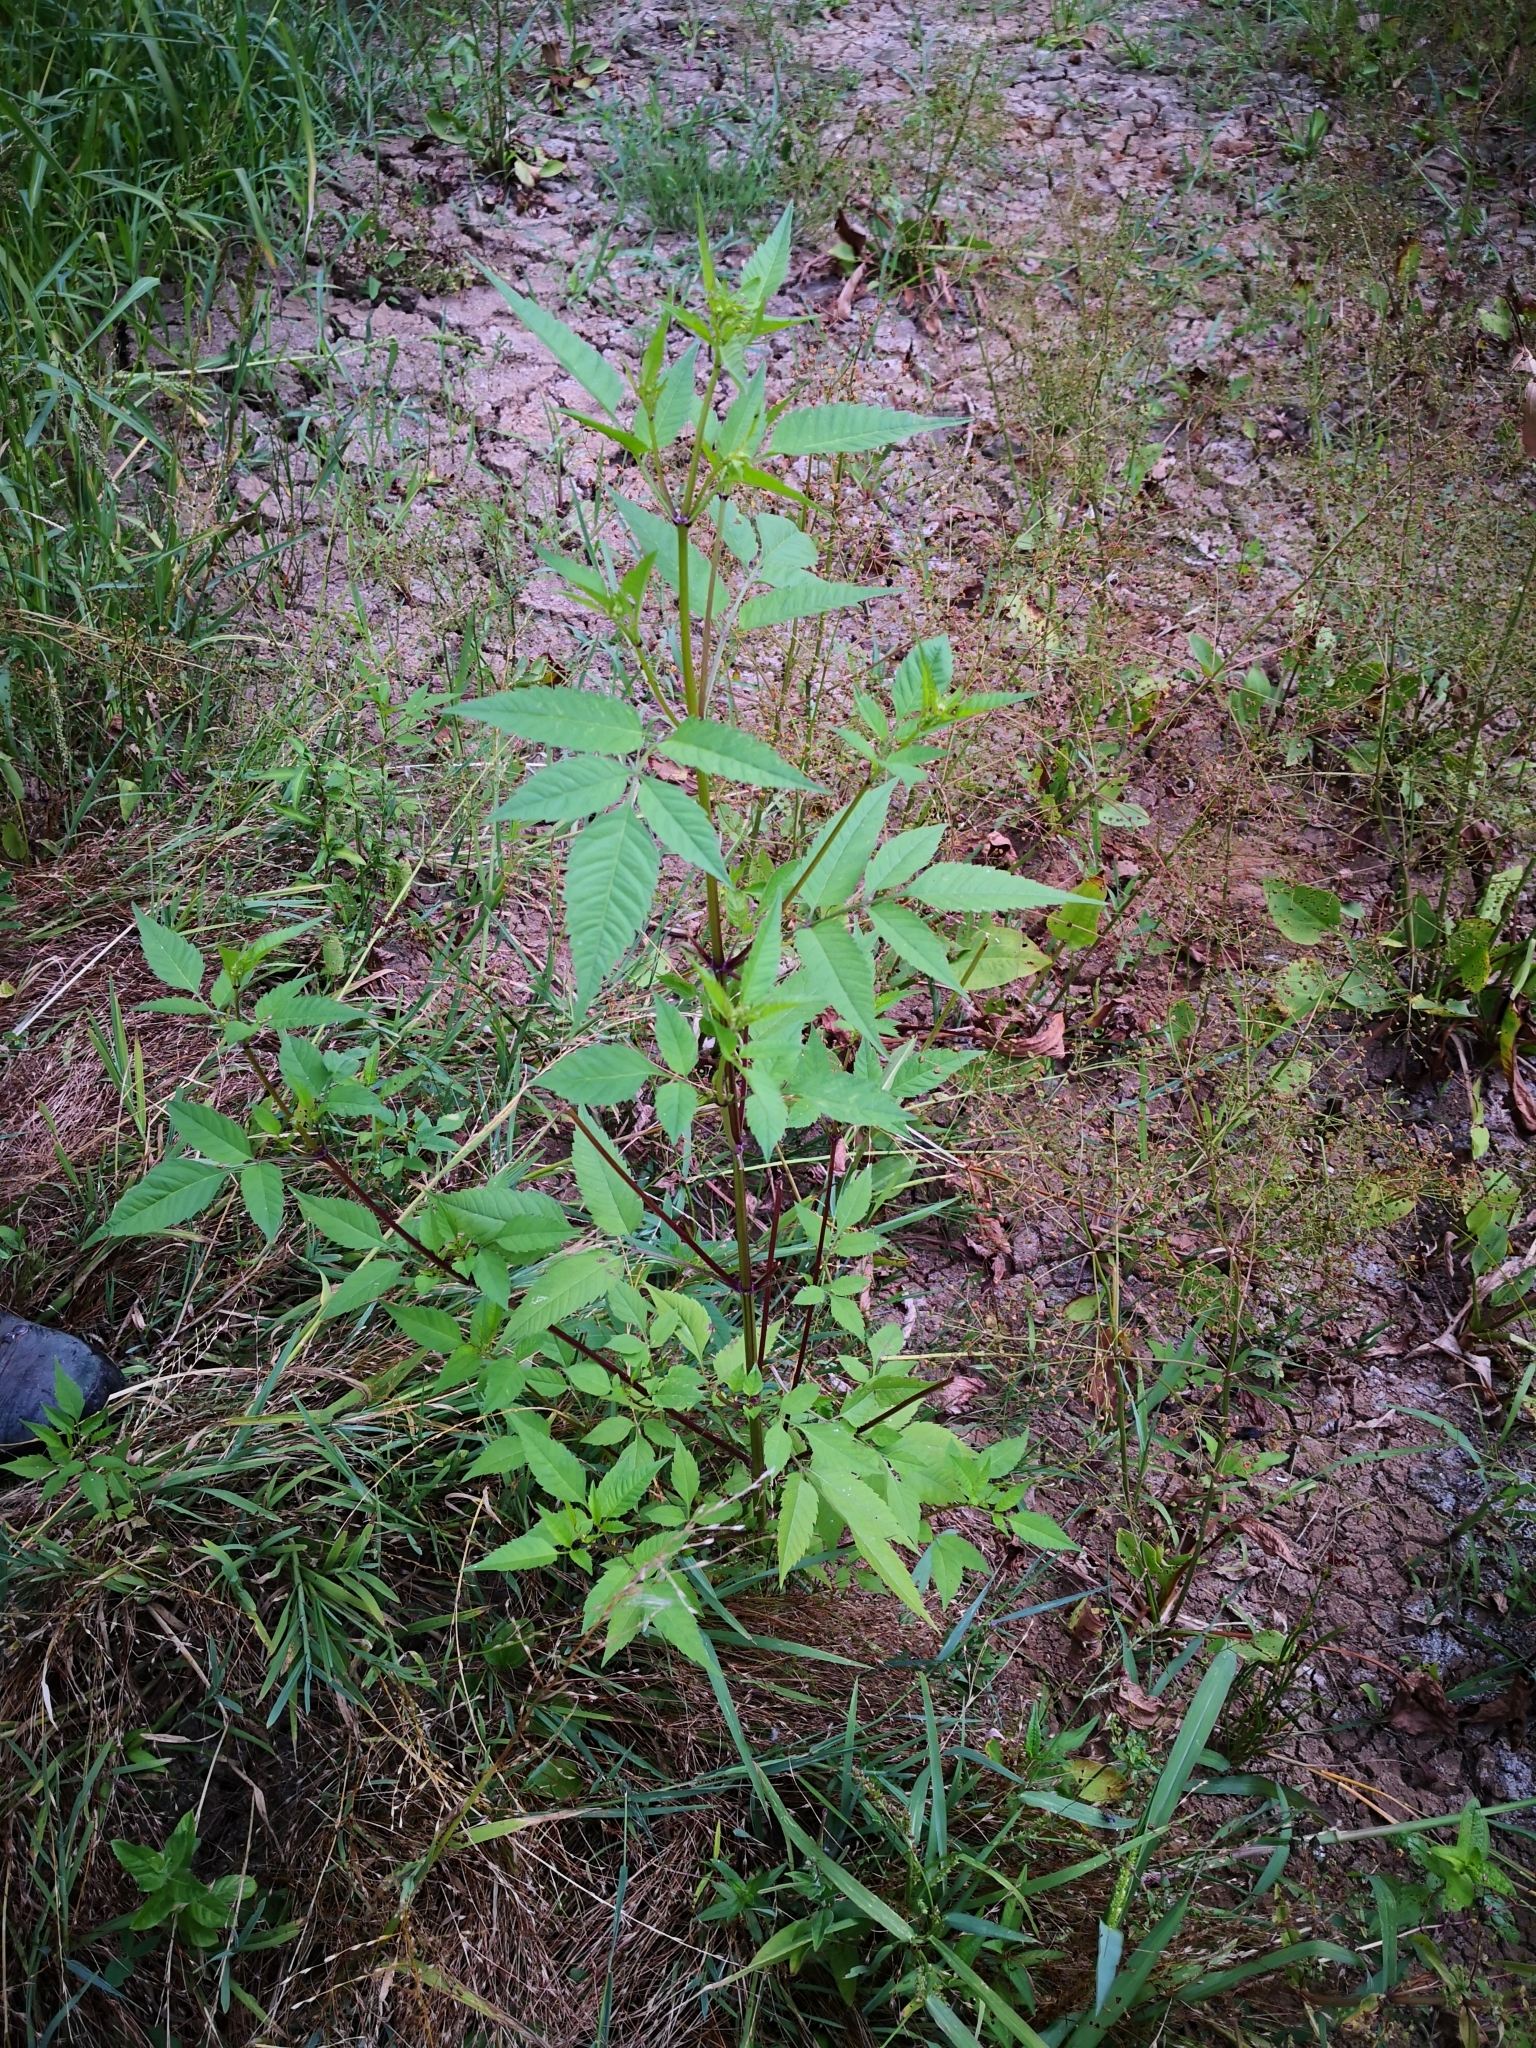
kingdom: Plantae
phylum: Tracheophyta
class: Magnoliopsida
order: Asterales
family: Asteraceae
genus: Bidens
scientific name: Bidens frondosa
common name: Beggarticks
